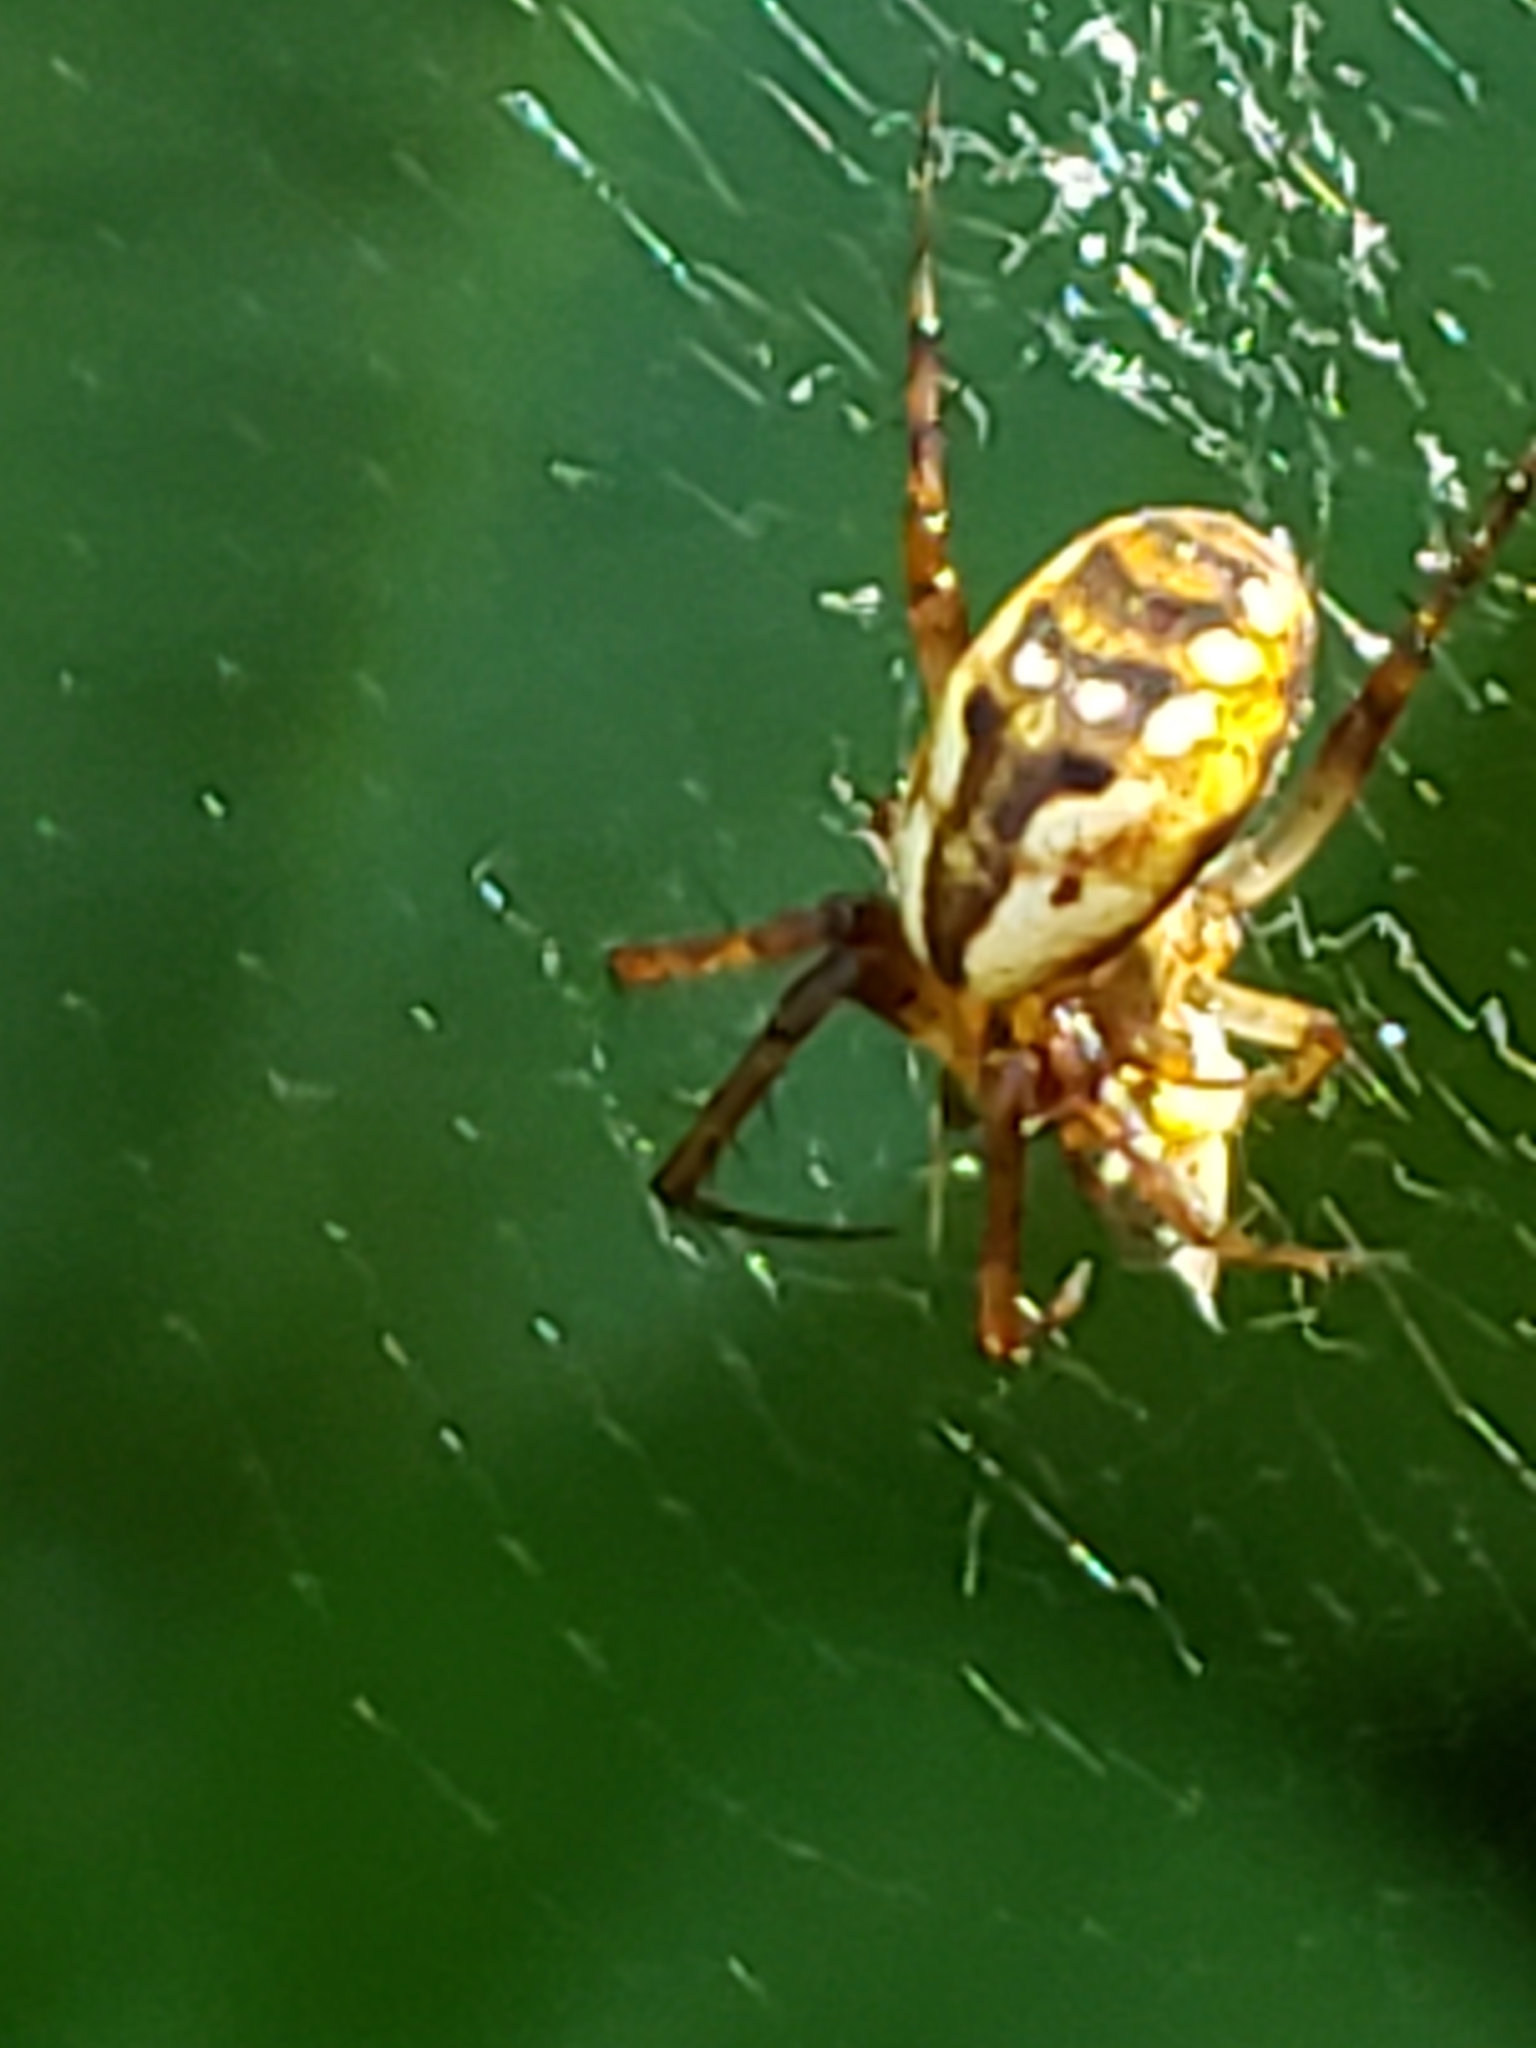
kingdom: Animalia
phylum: Arthropoda
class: Arachnida
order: Araneae
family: Araneidae
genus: Mangora
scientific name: Mangora placida
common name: Tuft-legged orbweaver
